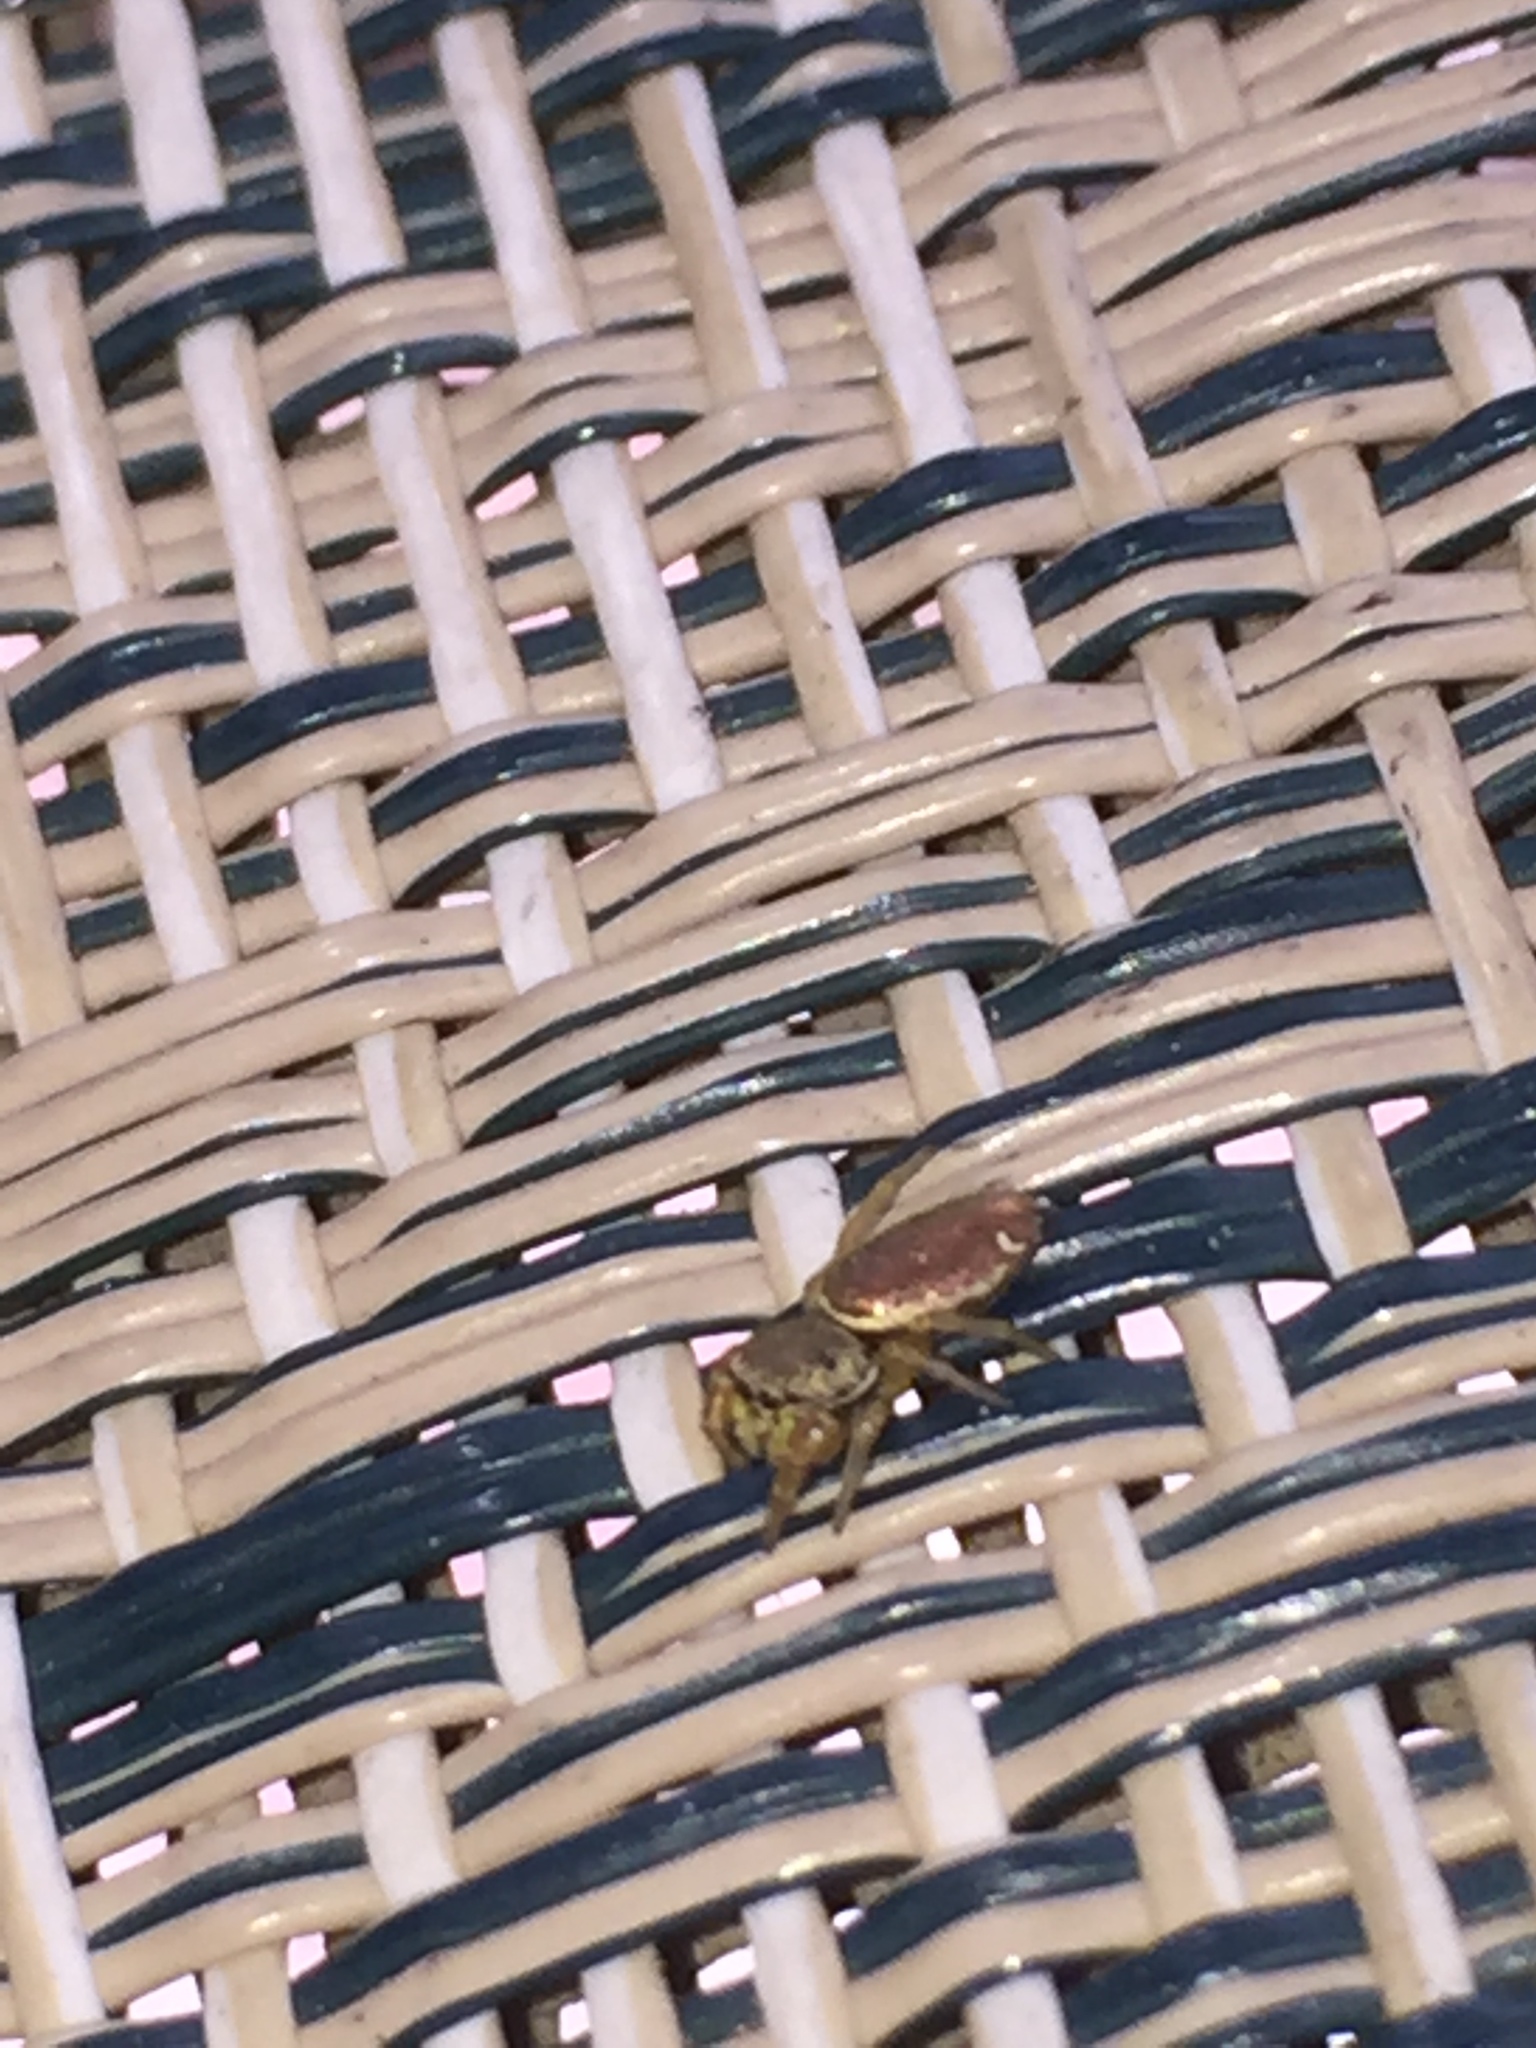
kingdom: Animalia
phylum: Arthropoda
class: Arachnida
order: Araneae
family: Salticidae
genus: Sassacus
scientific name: Sassacus vitis
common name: Jumping spiders
